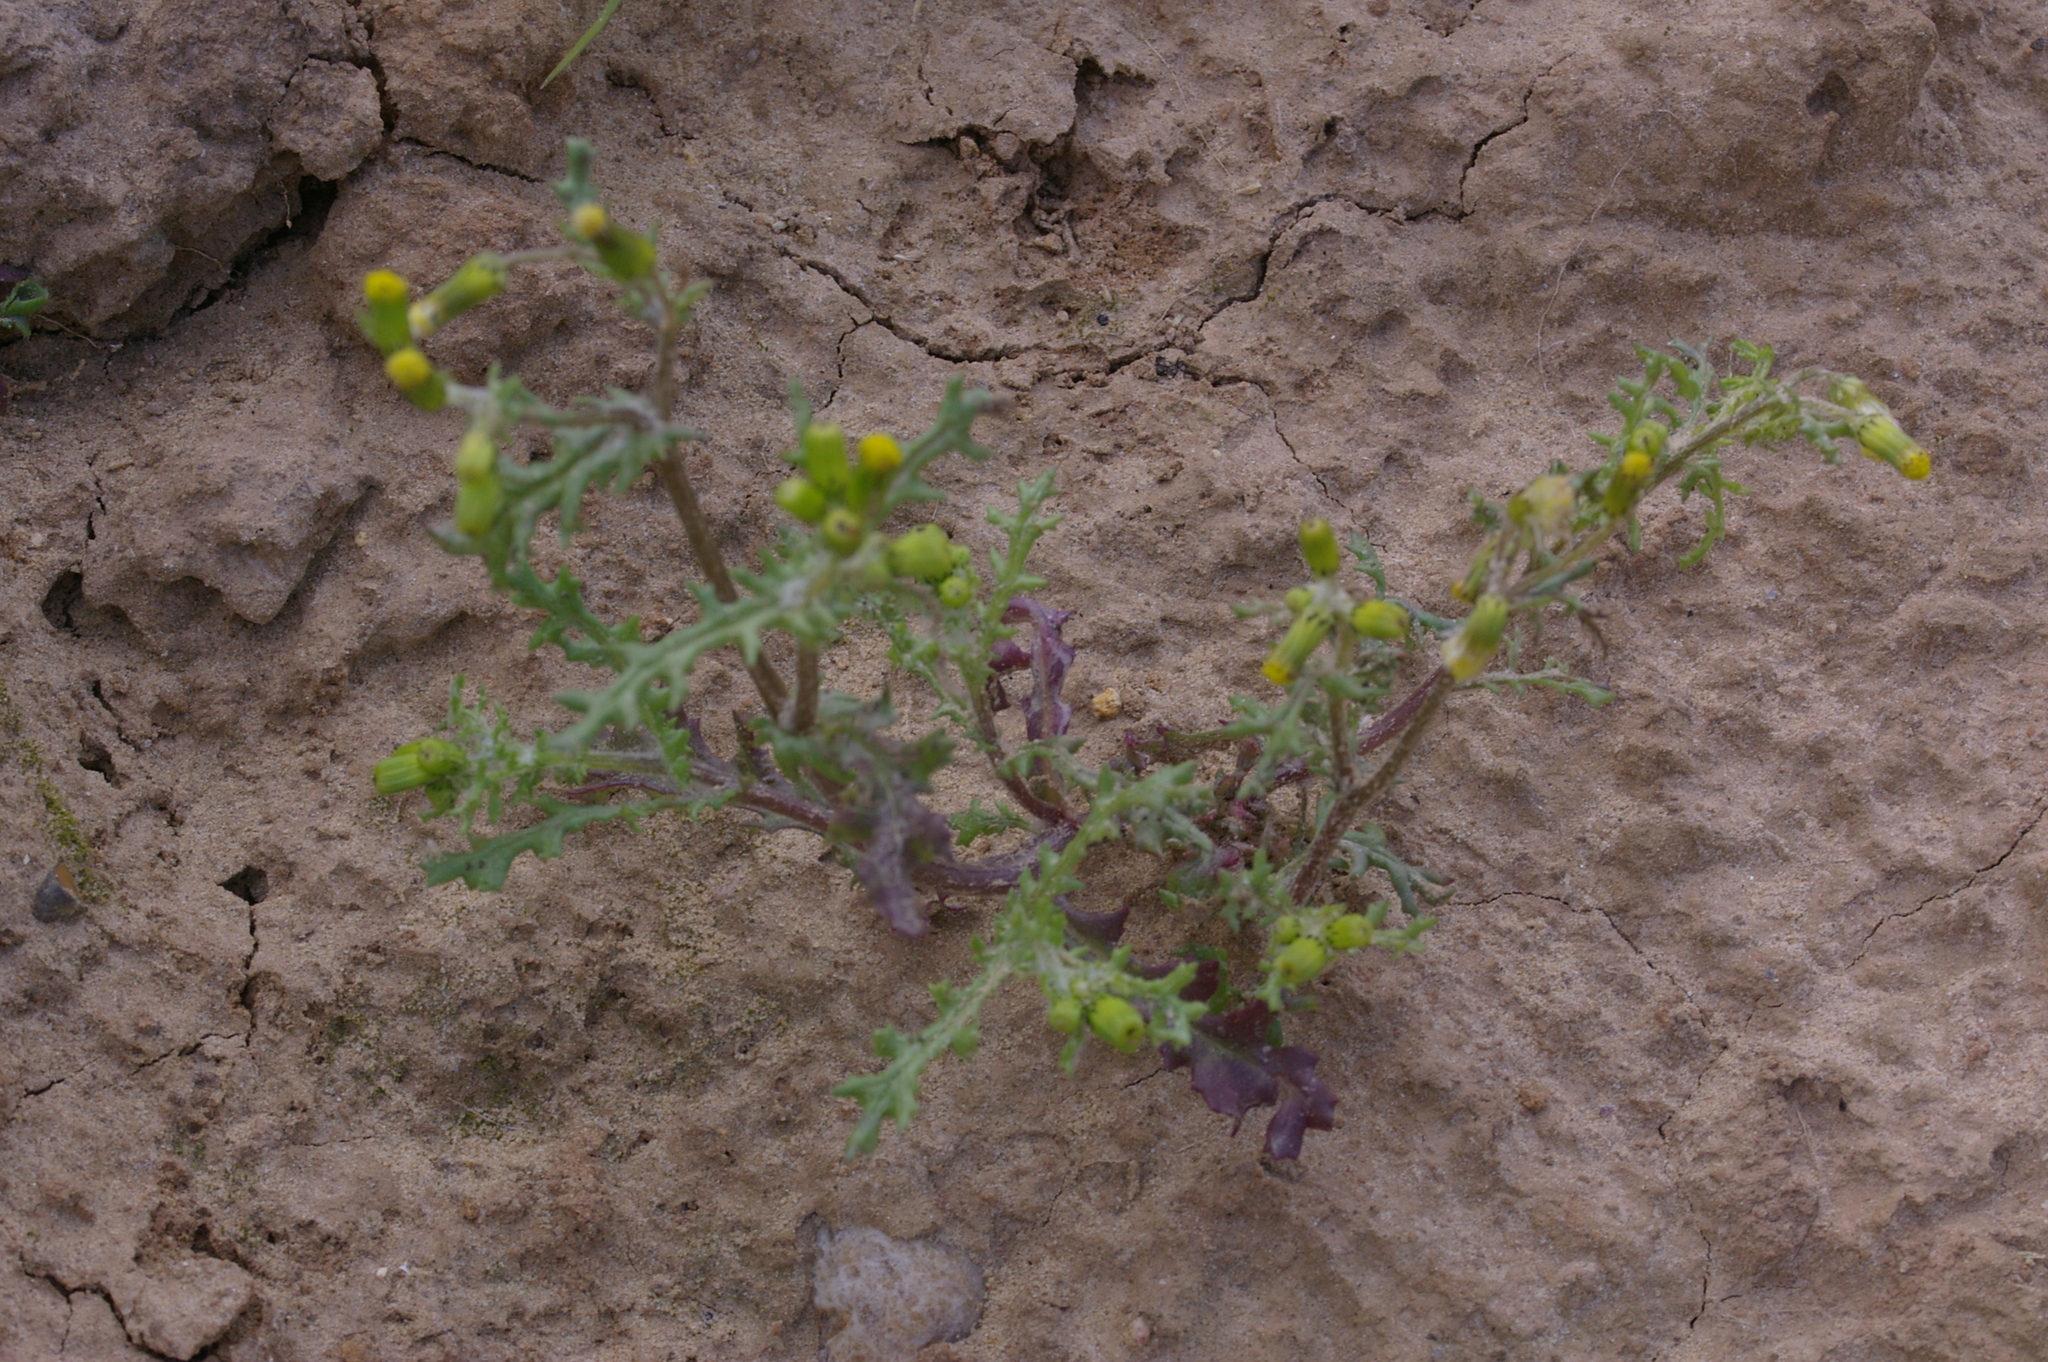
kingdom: Plantae
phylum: Tracheophyta
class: Magnoliopsida
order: Asterales
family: Asteraceae
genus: Senecio
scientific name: Senecio vulgaris
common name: Old-man-in-the-spring
